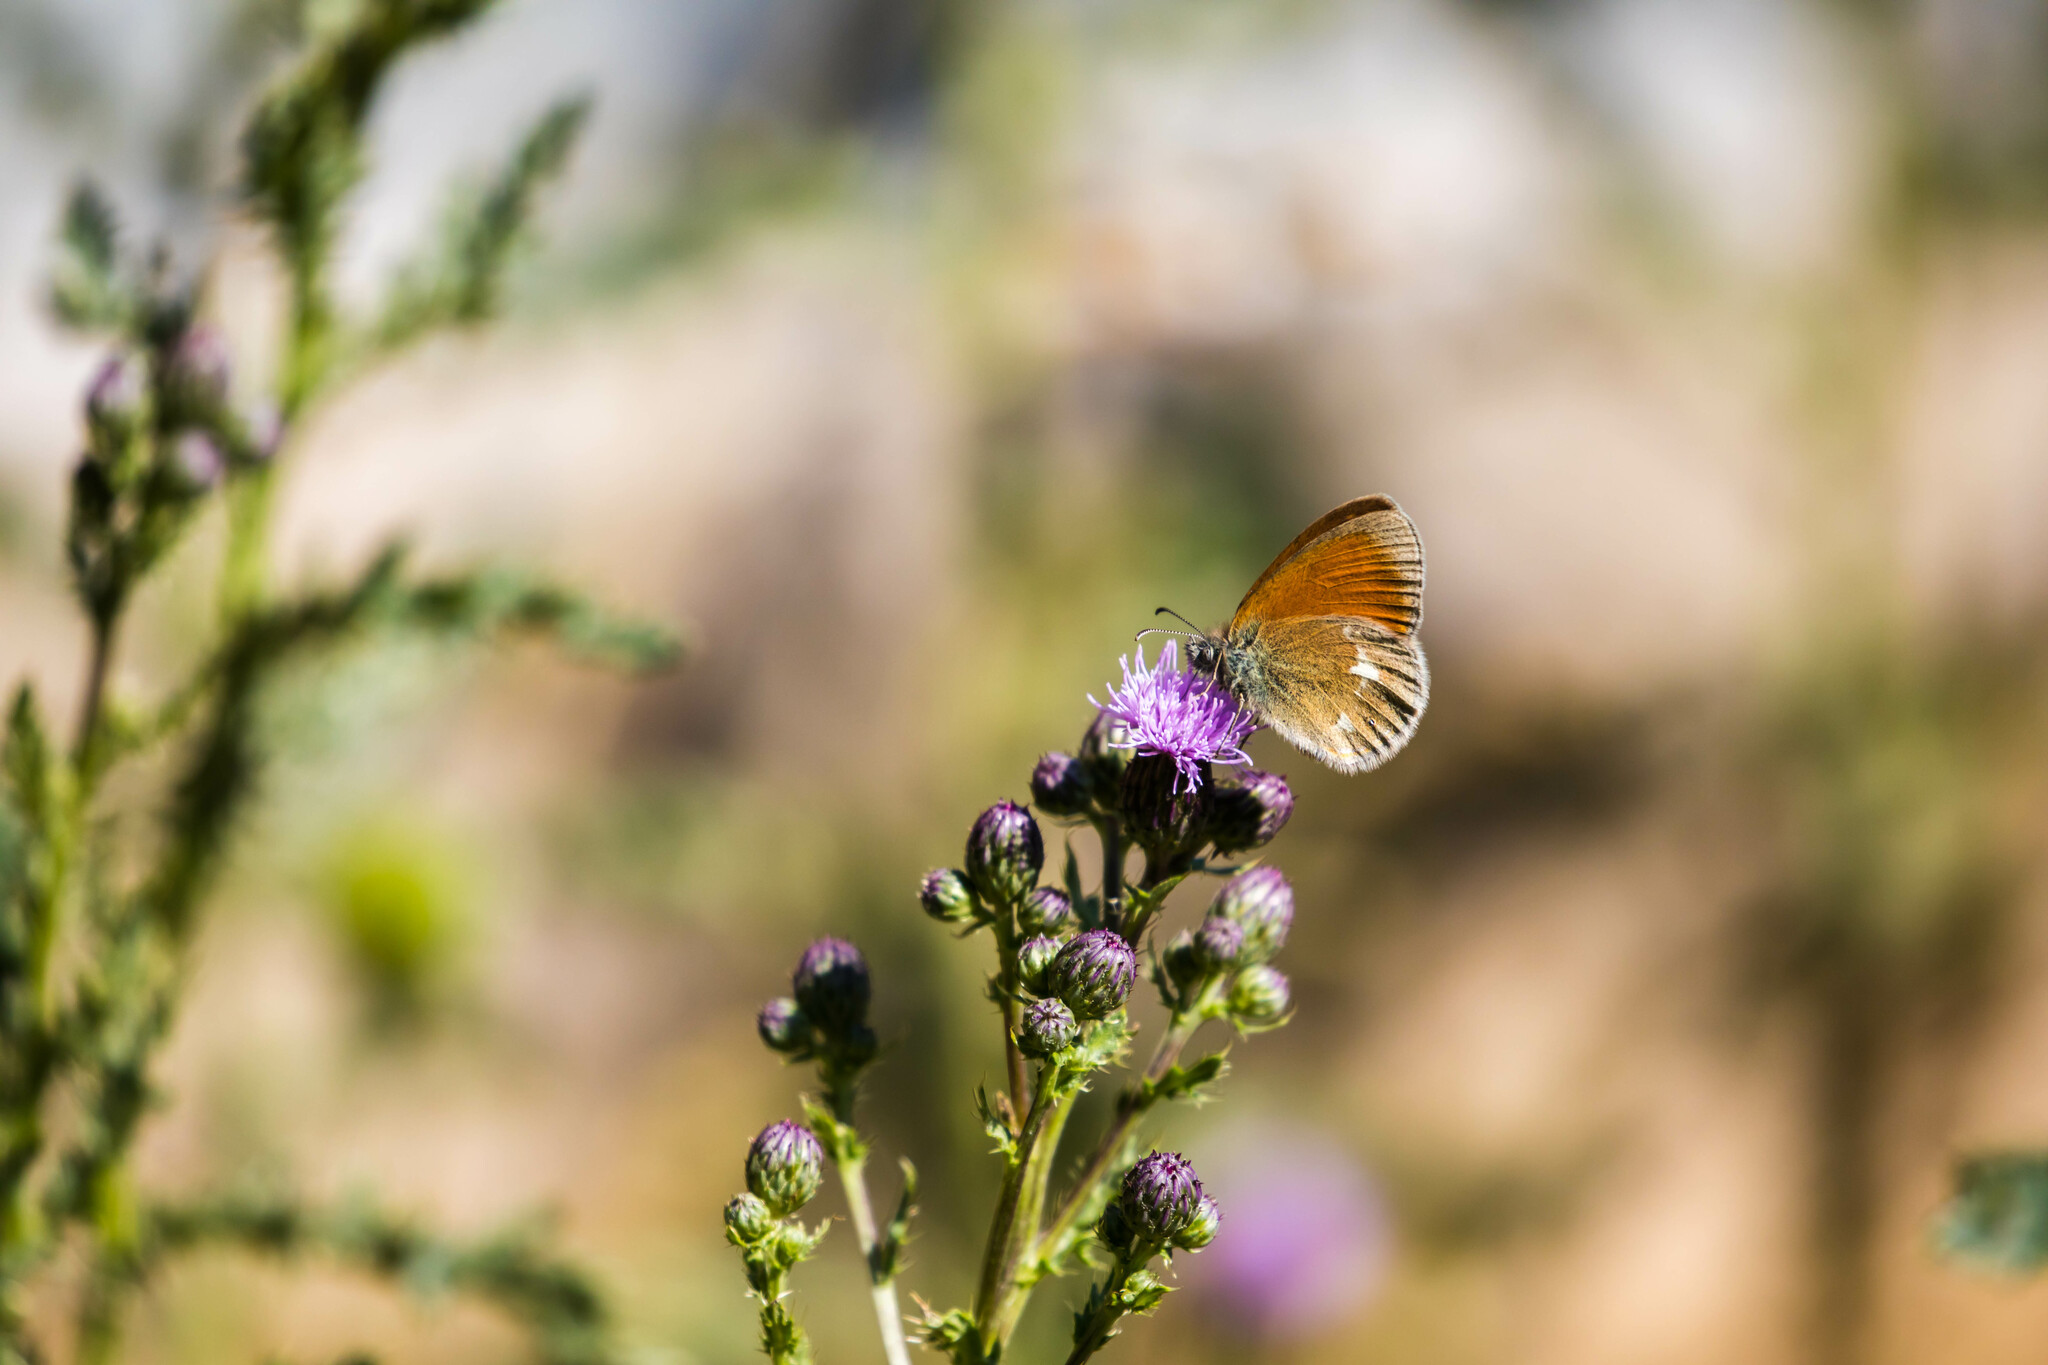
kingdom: Animalia
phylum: Arthropoda
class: Insecta
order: Lepidoptera
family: Nymphalidae
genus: Coenonympha
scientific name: Coenonympha iphis
